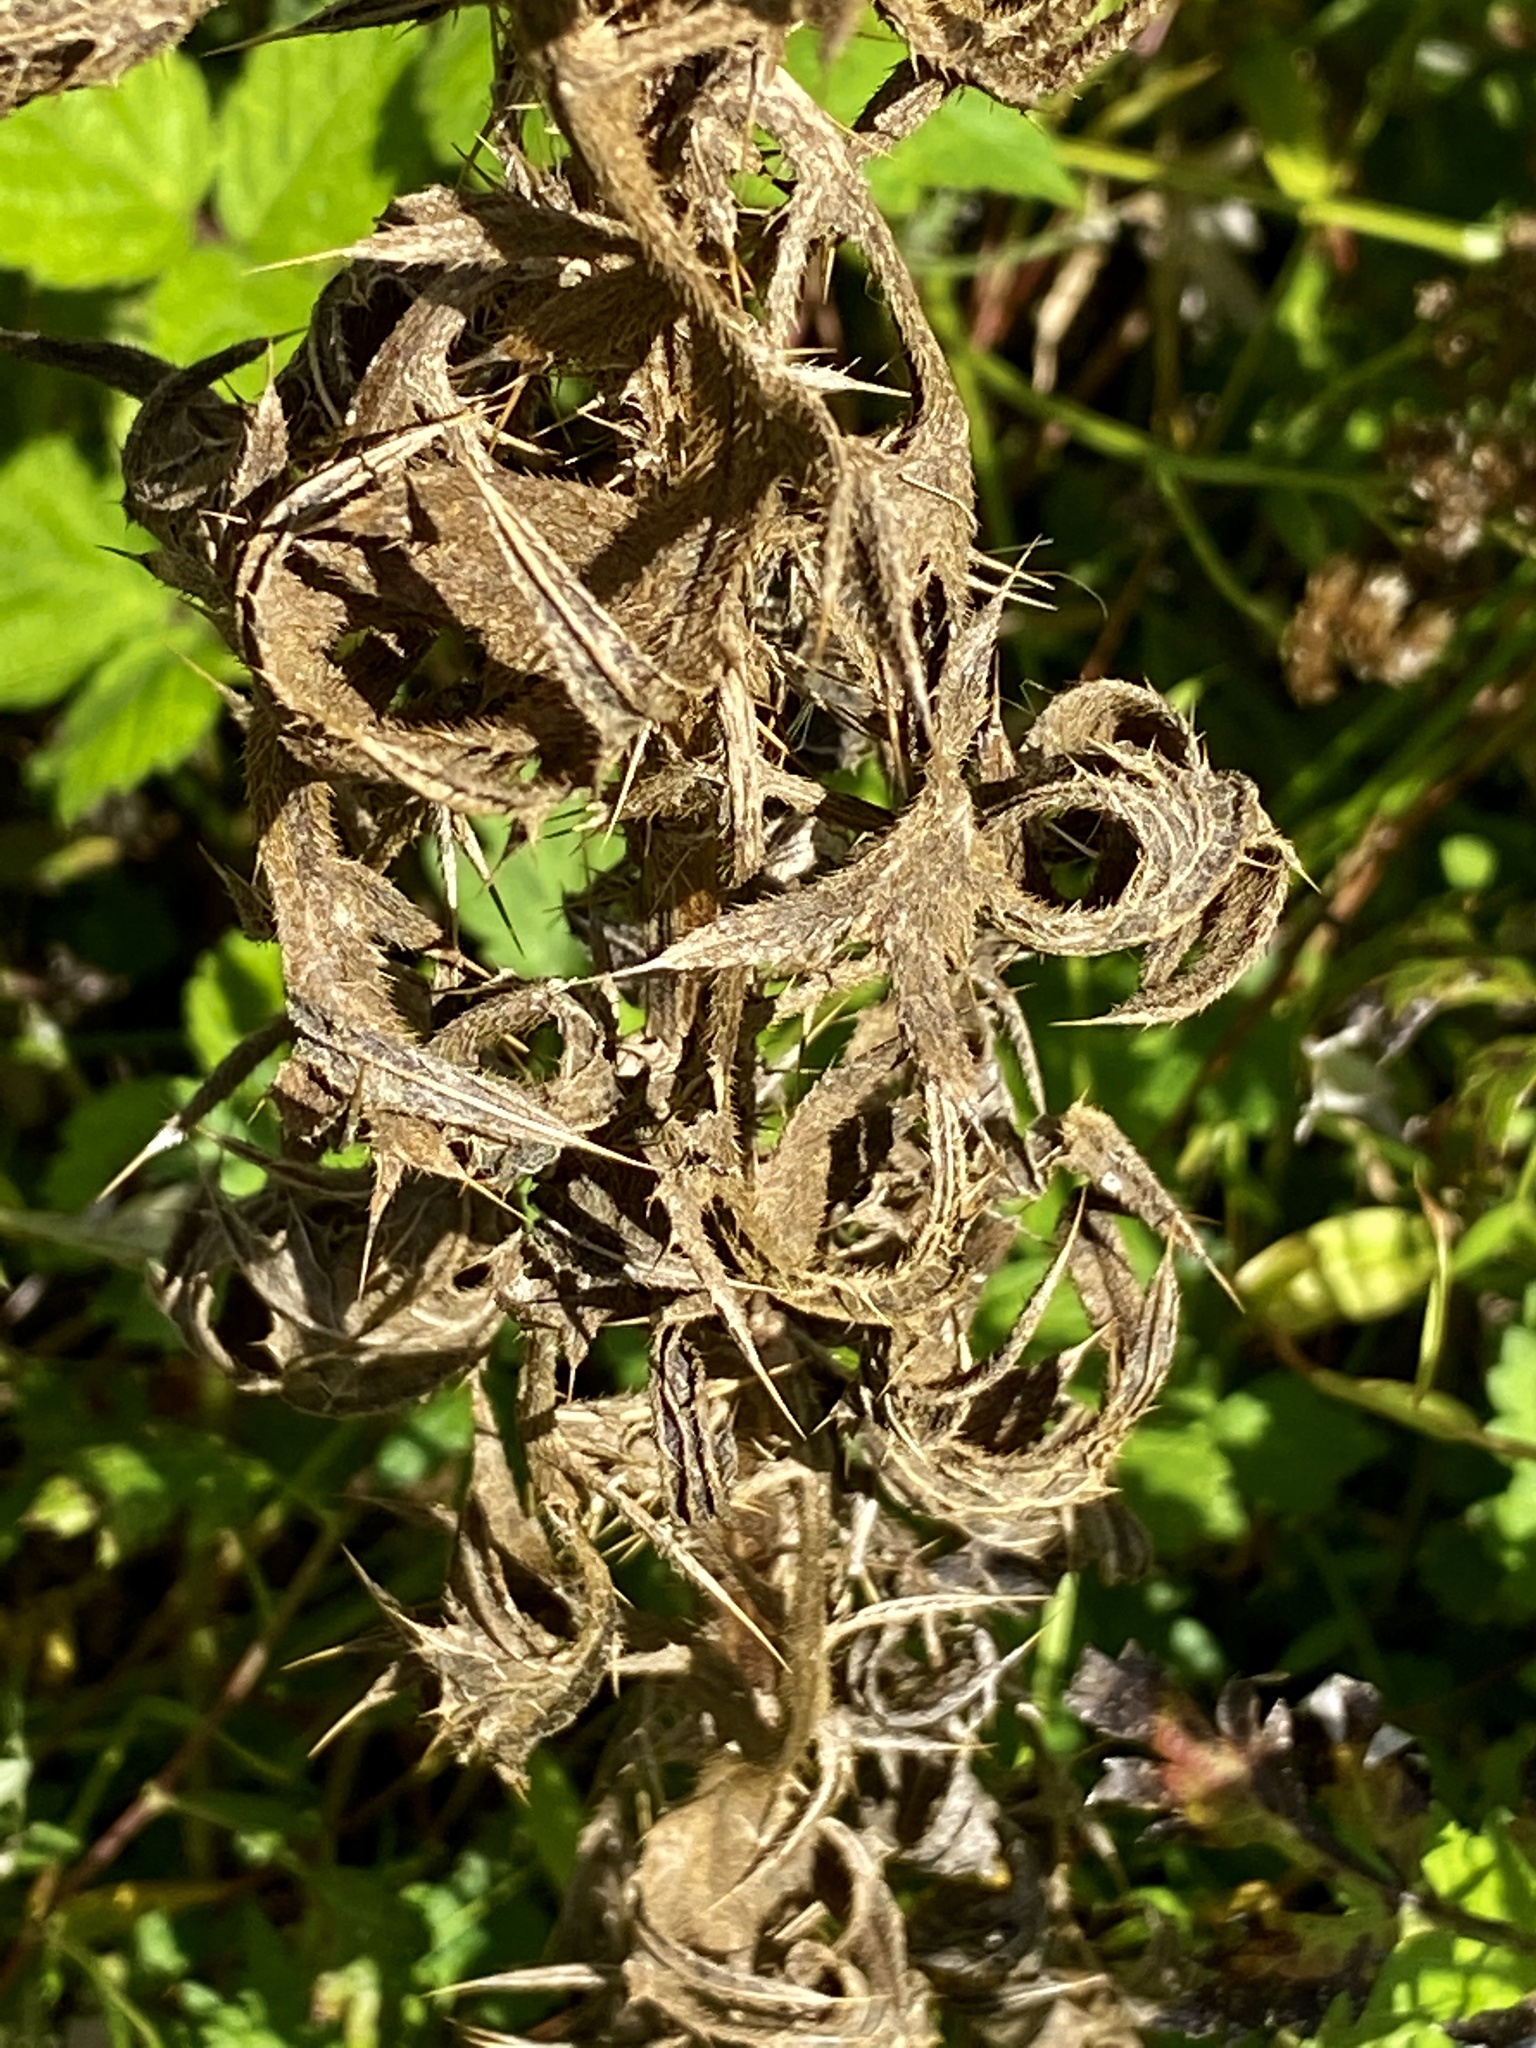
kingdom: Plantae
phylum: Tracheophyta
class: Magnoliopsida
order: Asterales
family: Asteraceae
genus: Cirsium
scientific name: Cirsium vulgare
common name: Bull thistle
